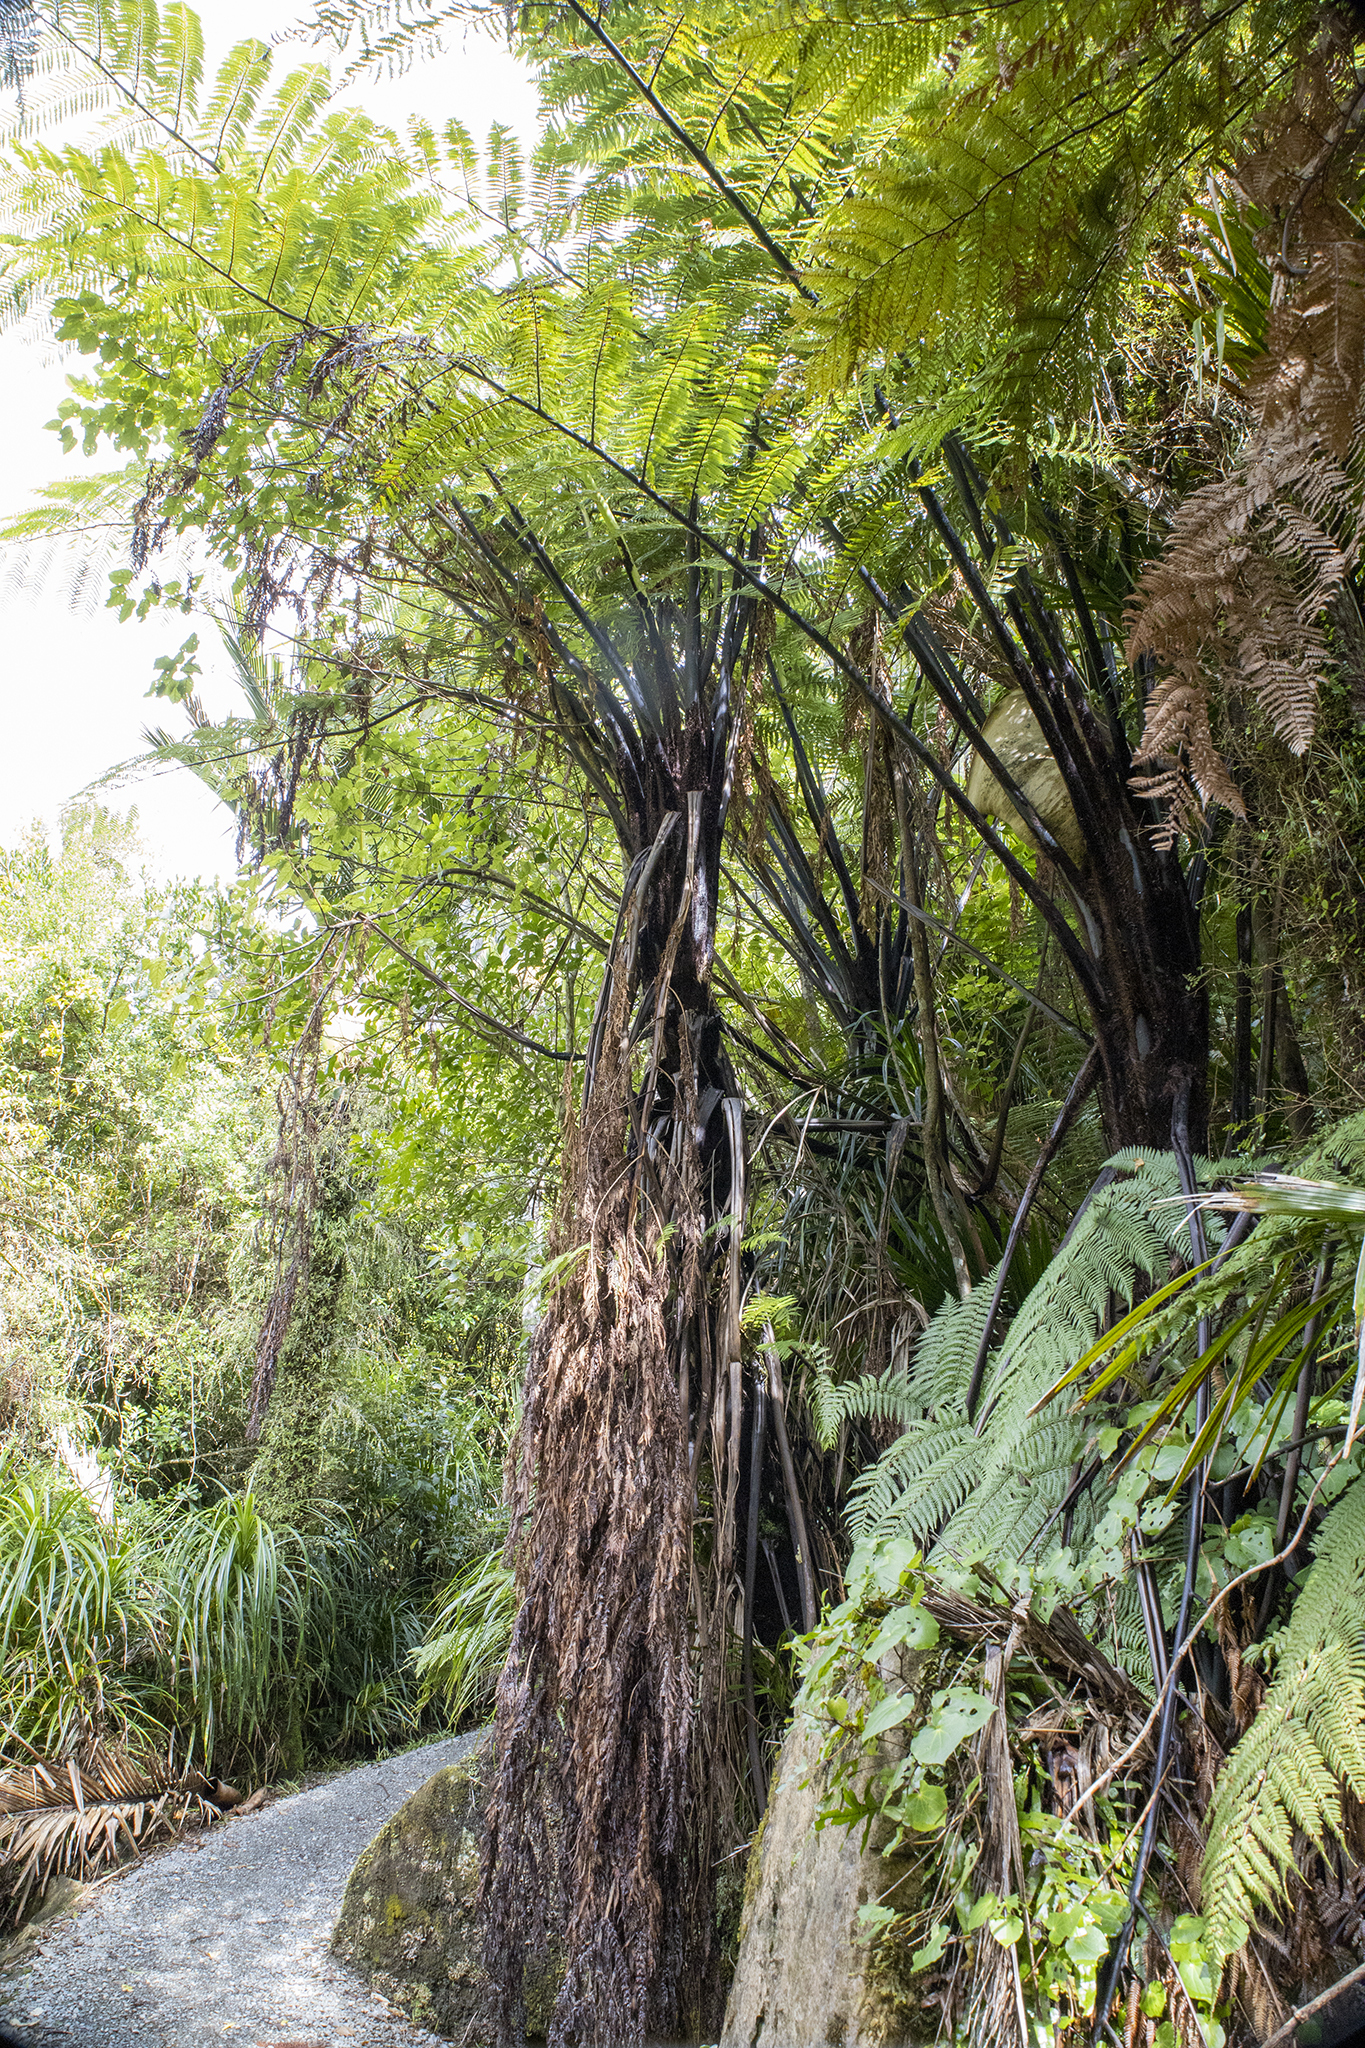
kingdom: Plantae
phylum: Tracheophyta
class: Polypodiopsida
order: Cyatheales
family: Cyatheaceae
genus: Sphaeropteris
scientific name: Sphaeropteris medullaris
